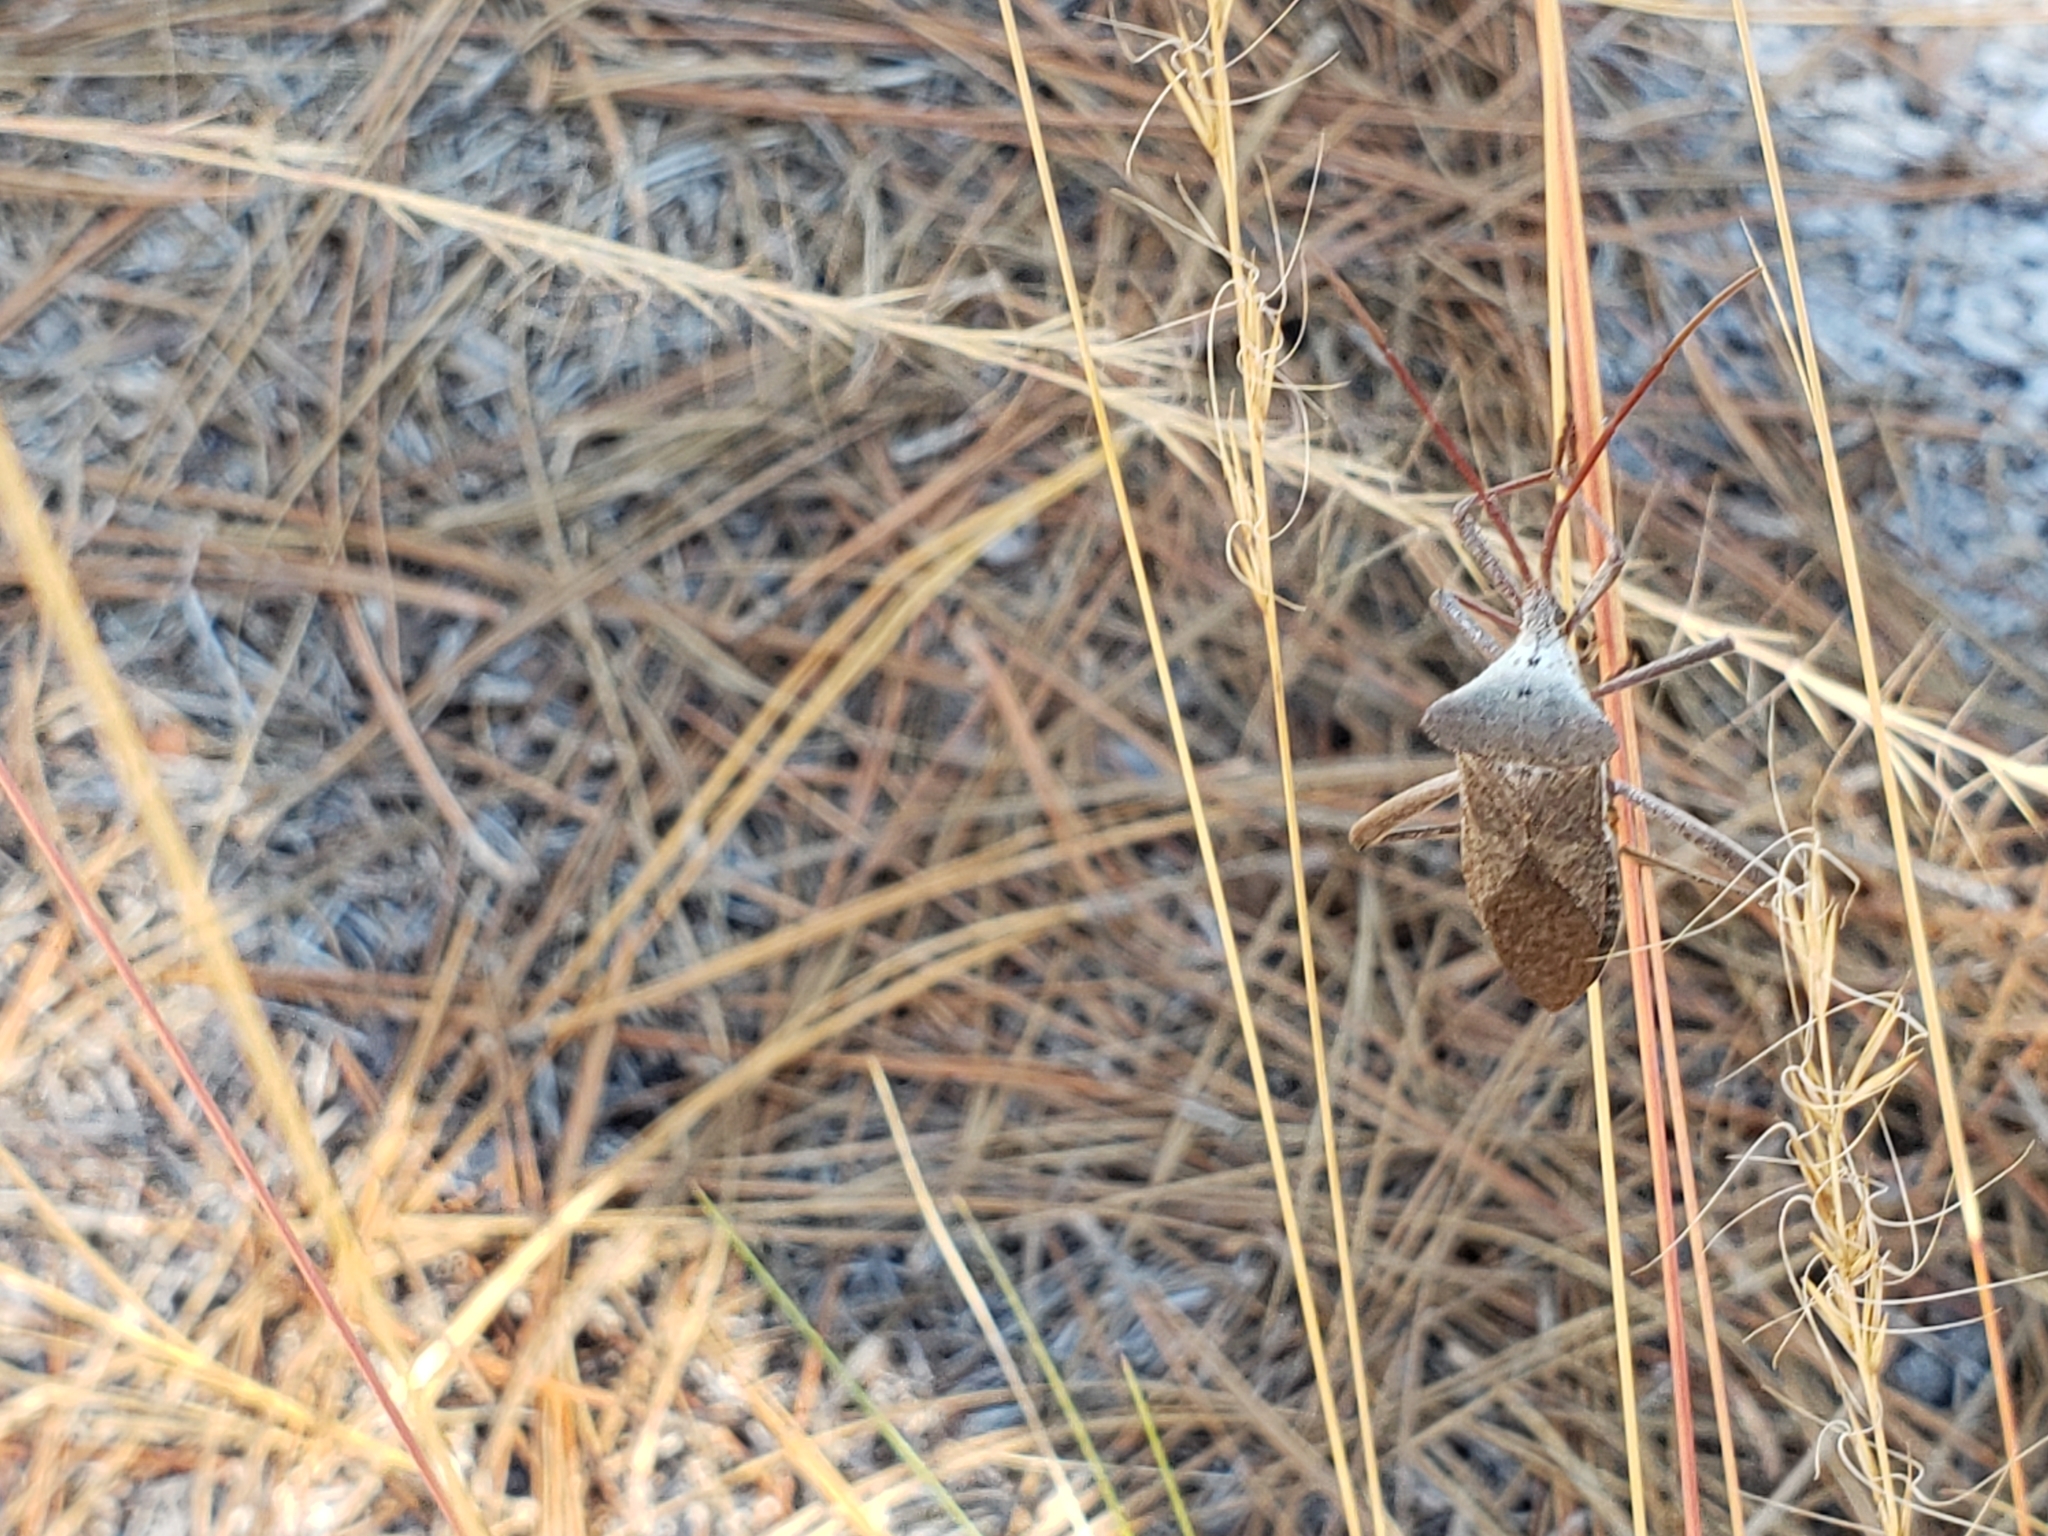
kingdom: Animalia
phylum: Arthropoda
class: Insecta
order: Hemiptera
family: Coreidae
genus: Acanthocephala
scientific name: Acanthocephala declivis
